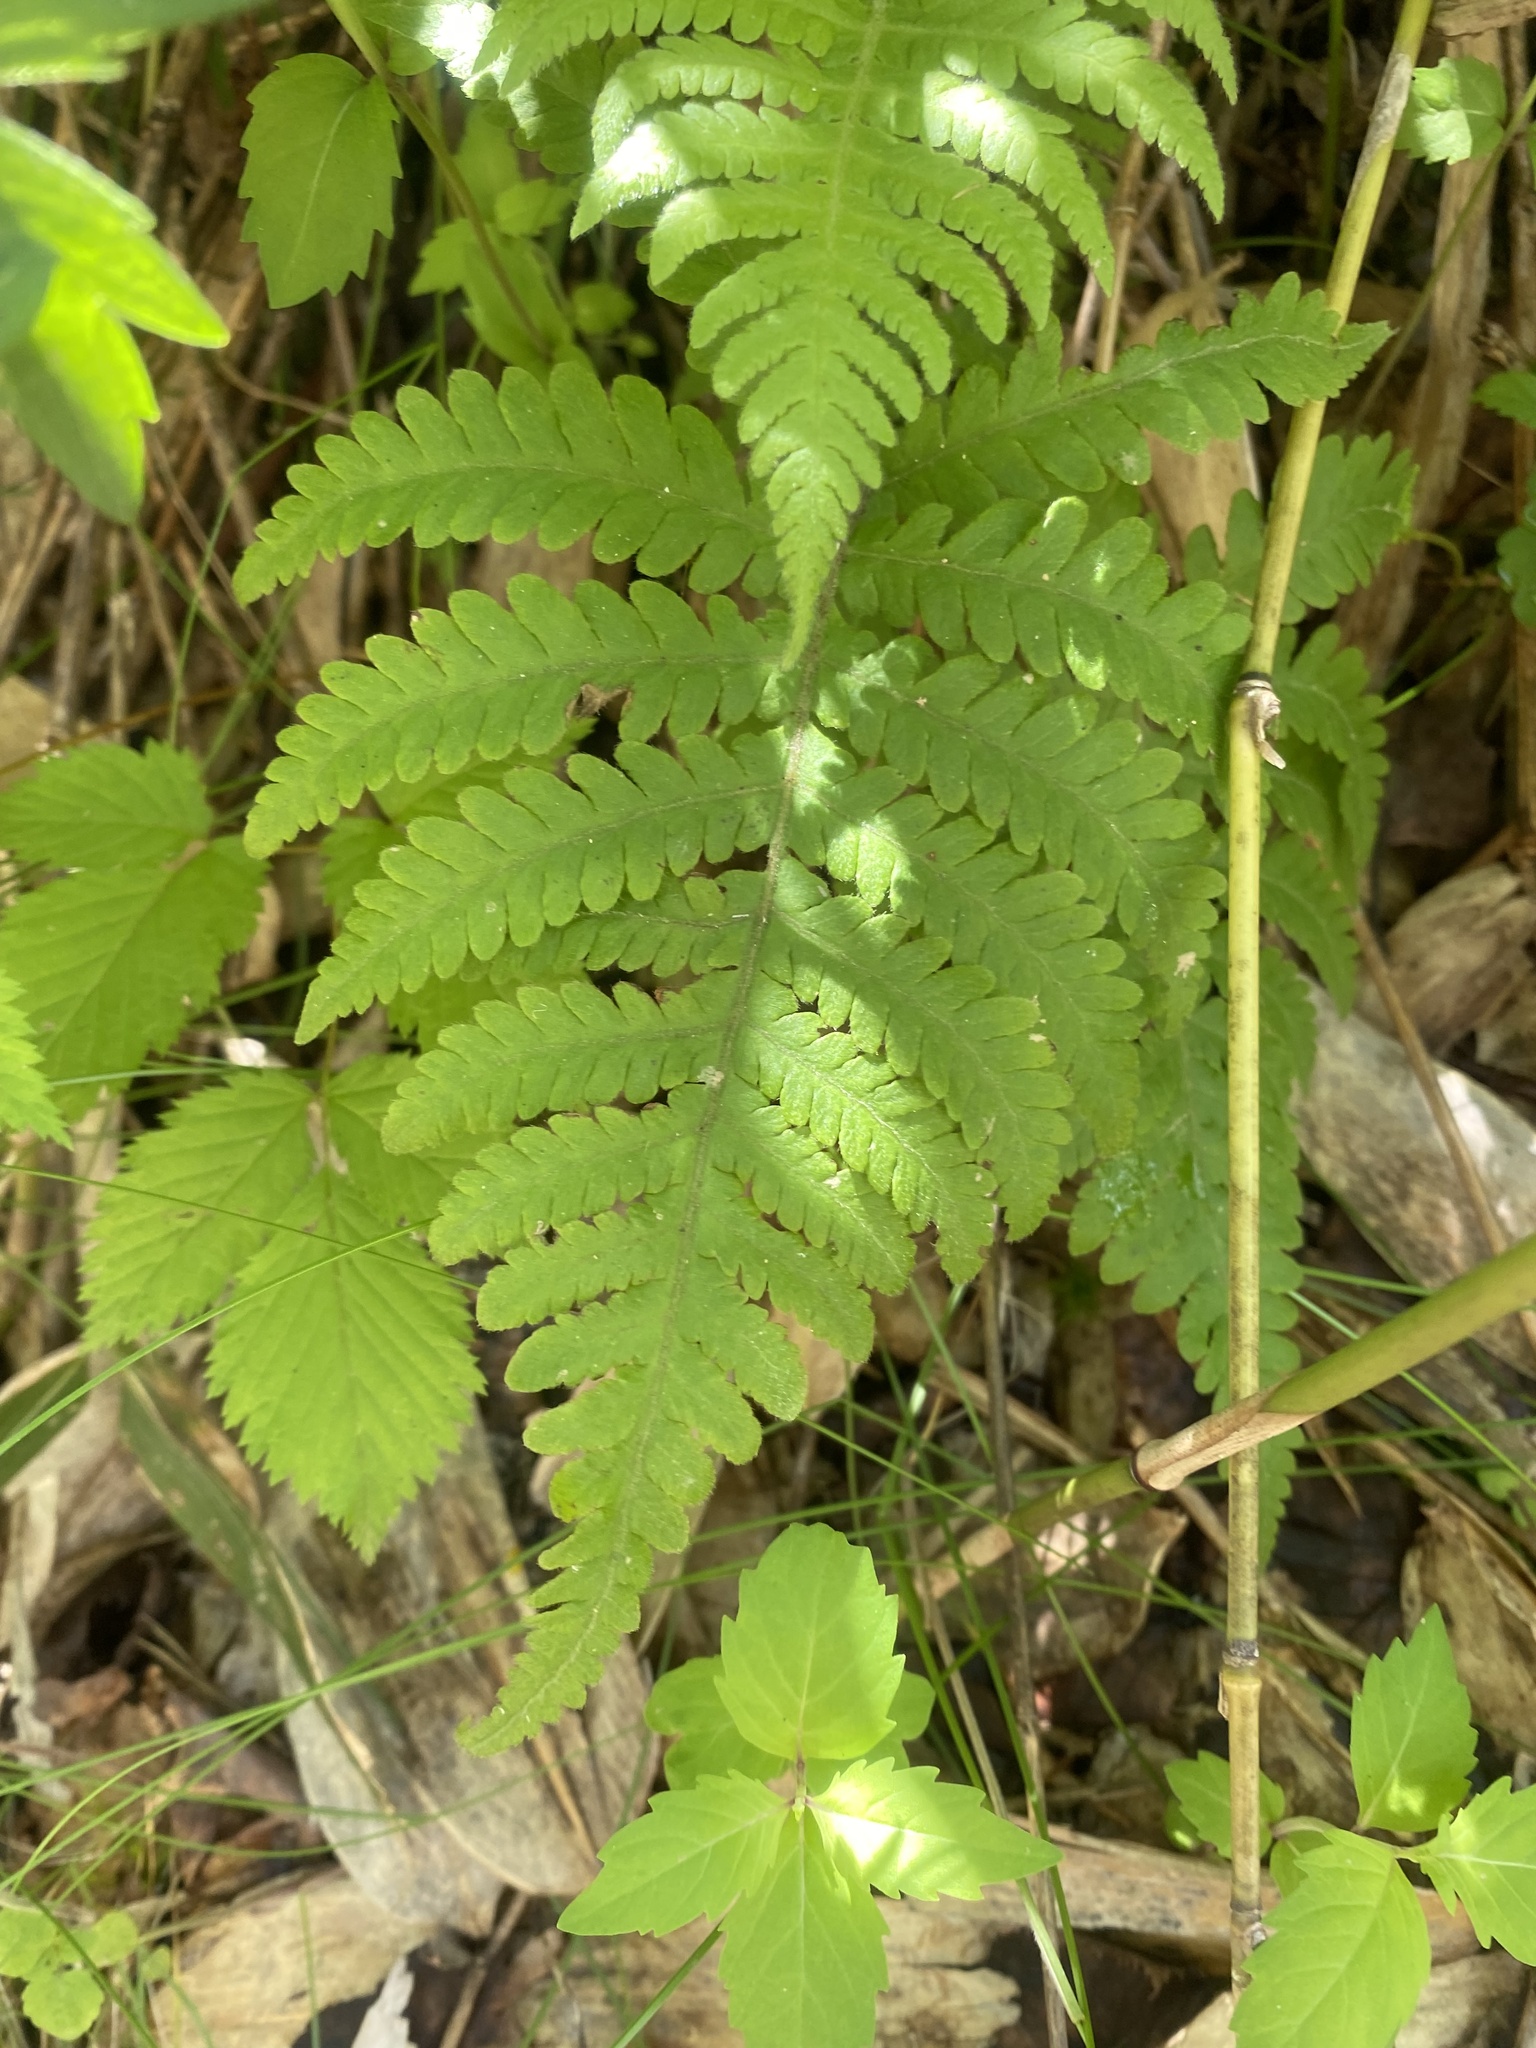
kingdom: Plantae
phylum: Tracheophyta
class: Polypodiopsida
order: Polypodiales
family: Thelypteridaceae
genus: Phegopteris
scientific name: Phegopteris connectilis
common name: Beech fern
